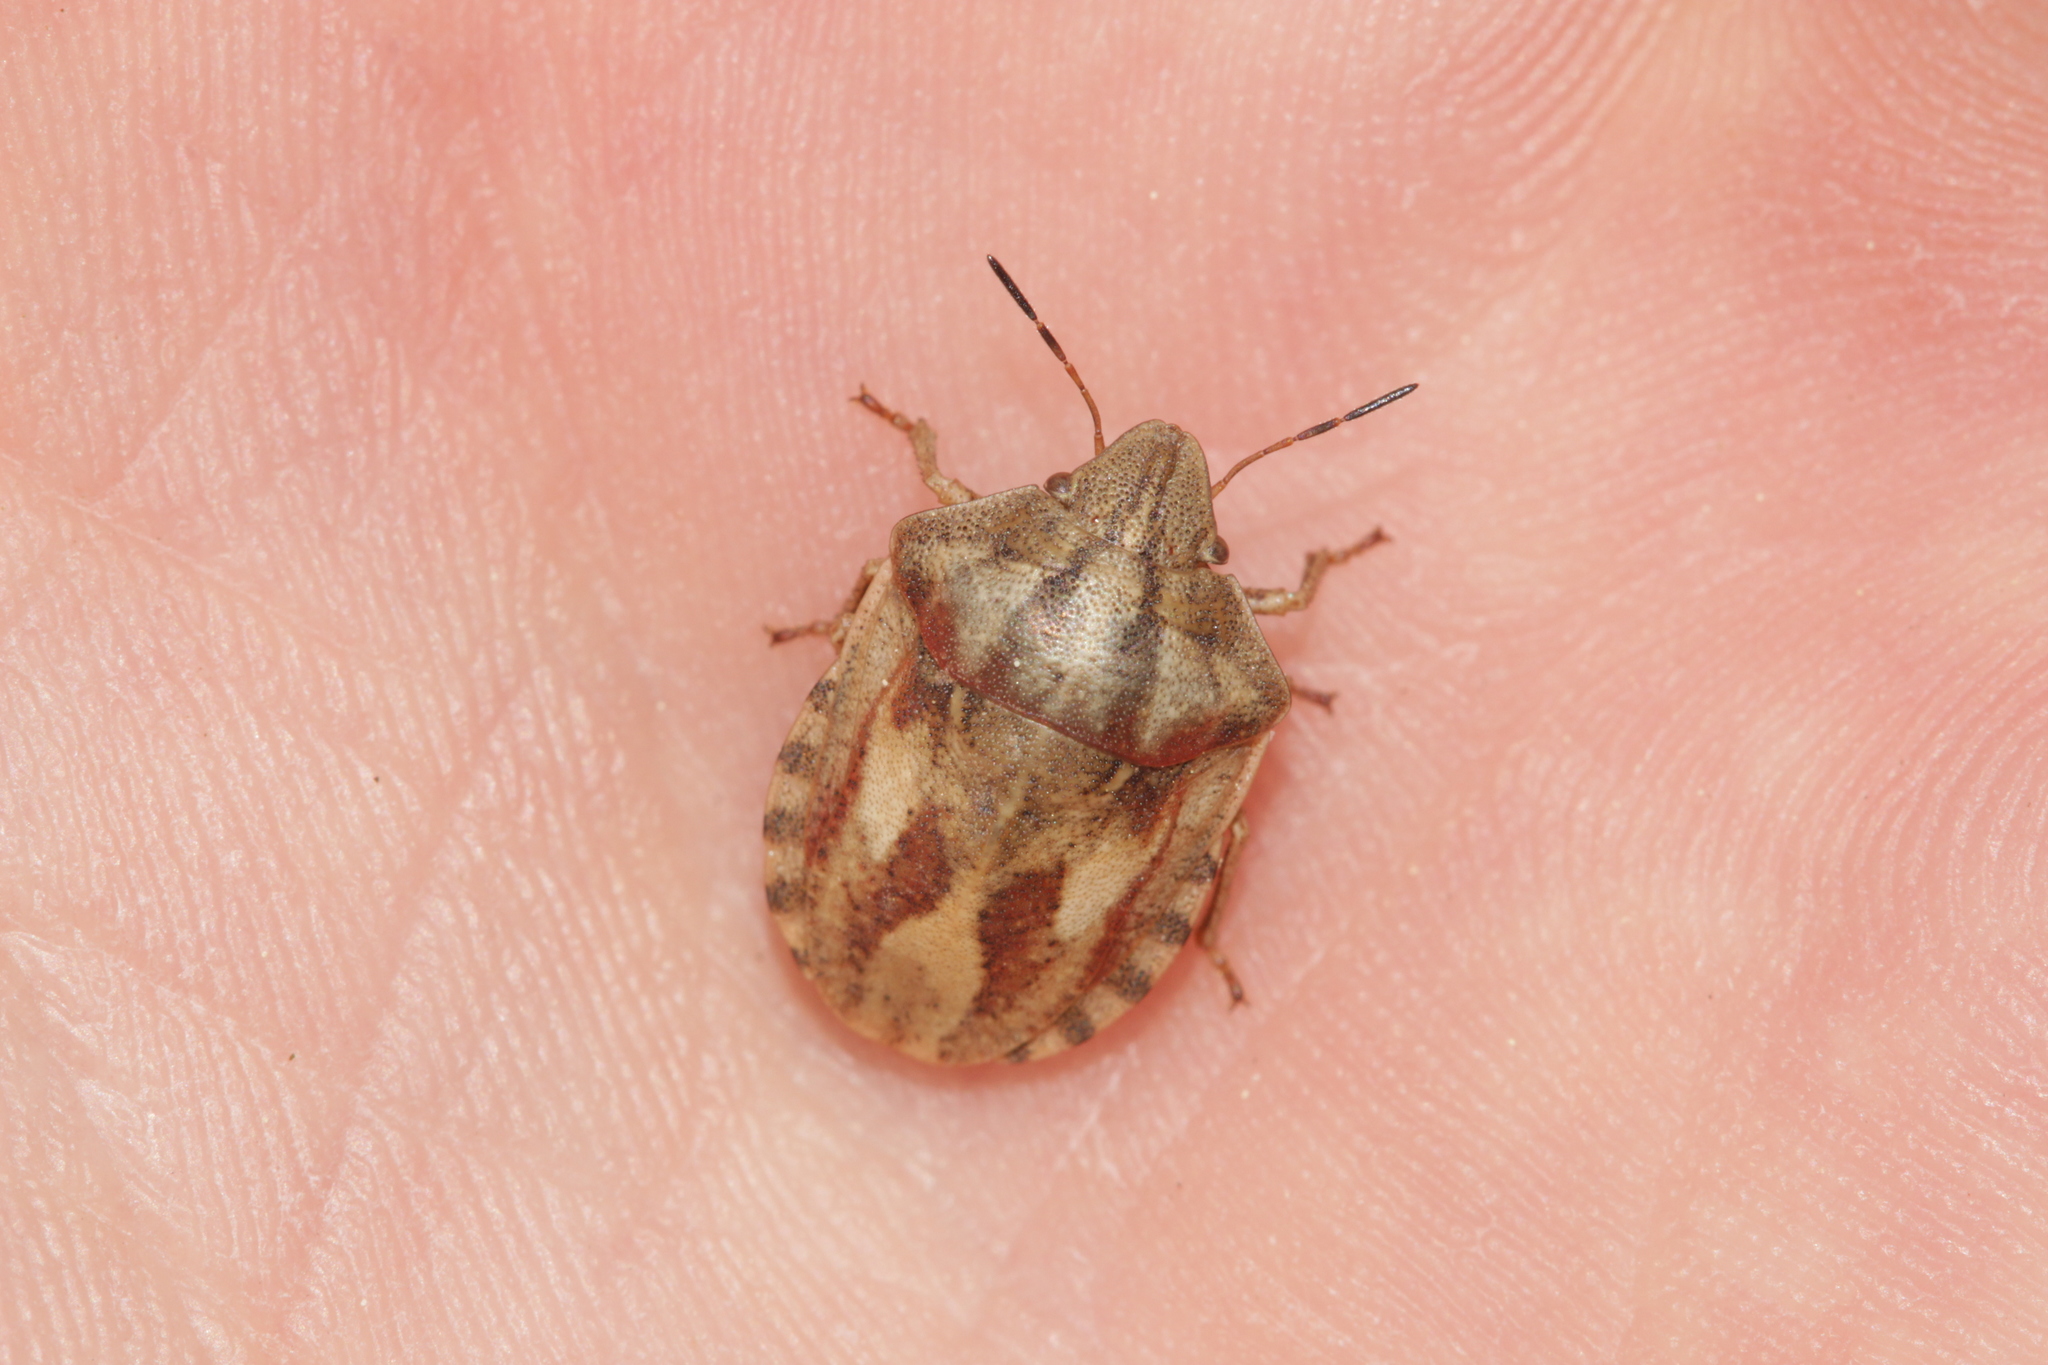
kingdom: Animalia
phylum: Arthropoda
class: Insecta
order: Hemiptera
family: Scutelleridae
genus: Eurygaster
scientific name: Eurygaster testudinaria
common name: Tortoise bug
